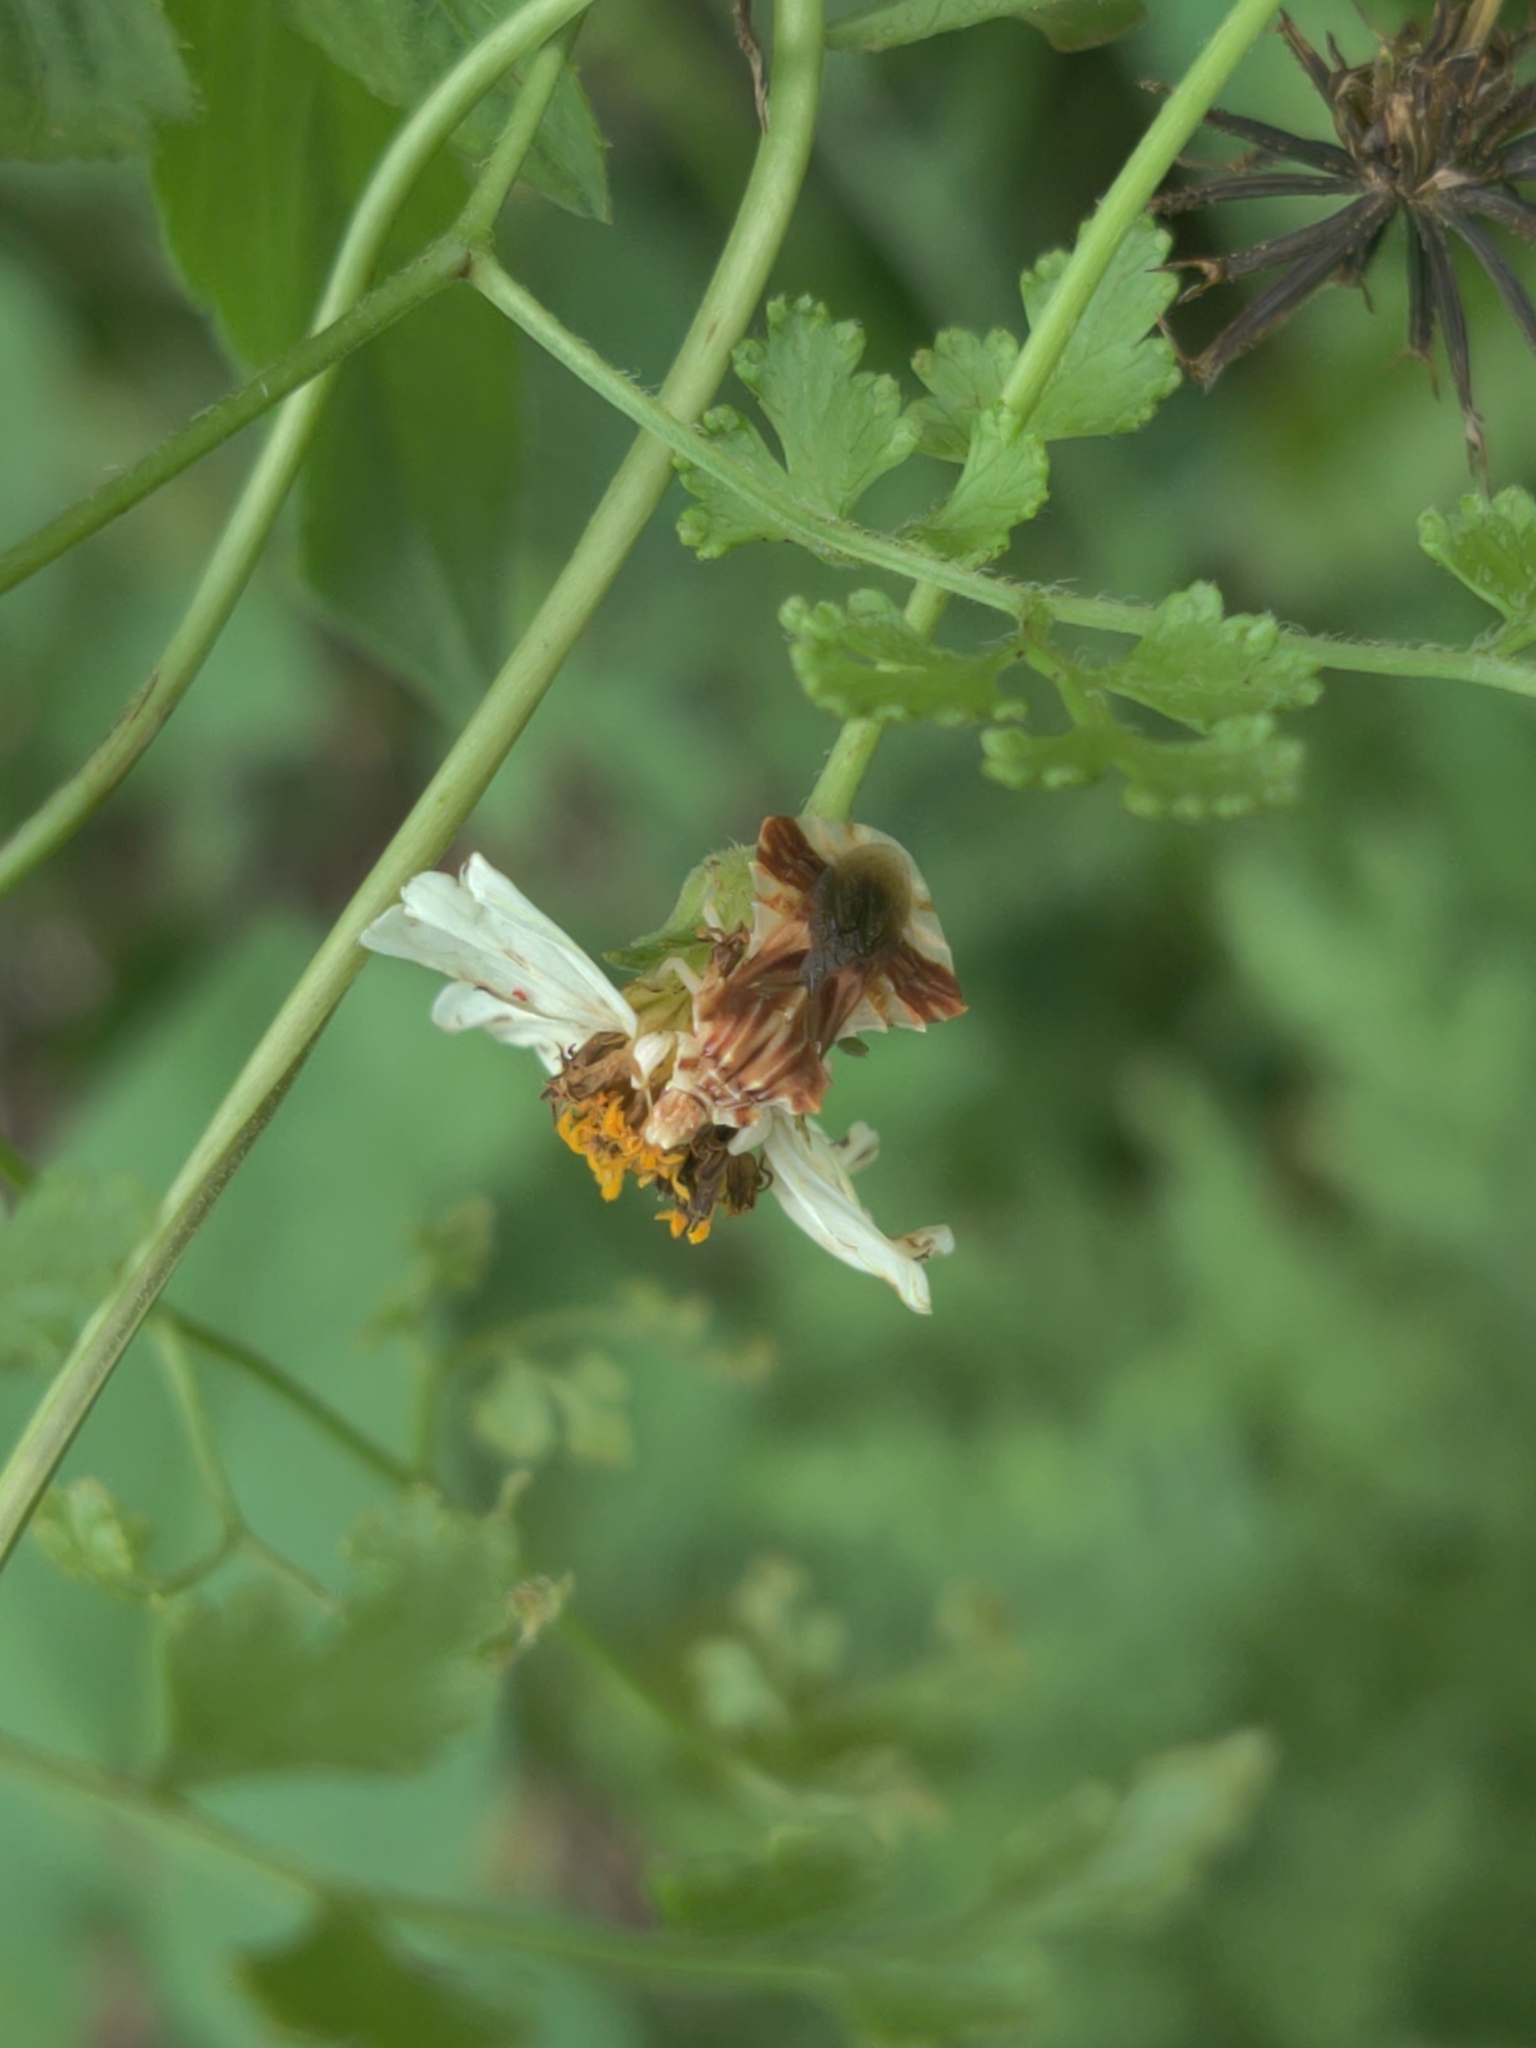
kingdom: Animalia
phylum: Arthropoda
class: Insecta
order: Hemiptera
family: Reduviidae
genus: Phymata
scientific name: Phymata fasciata
